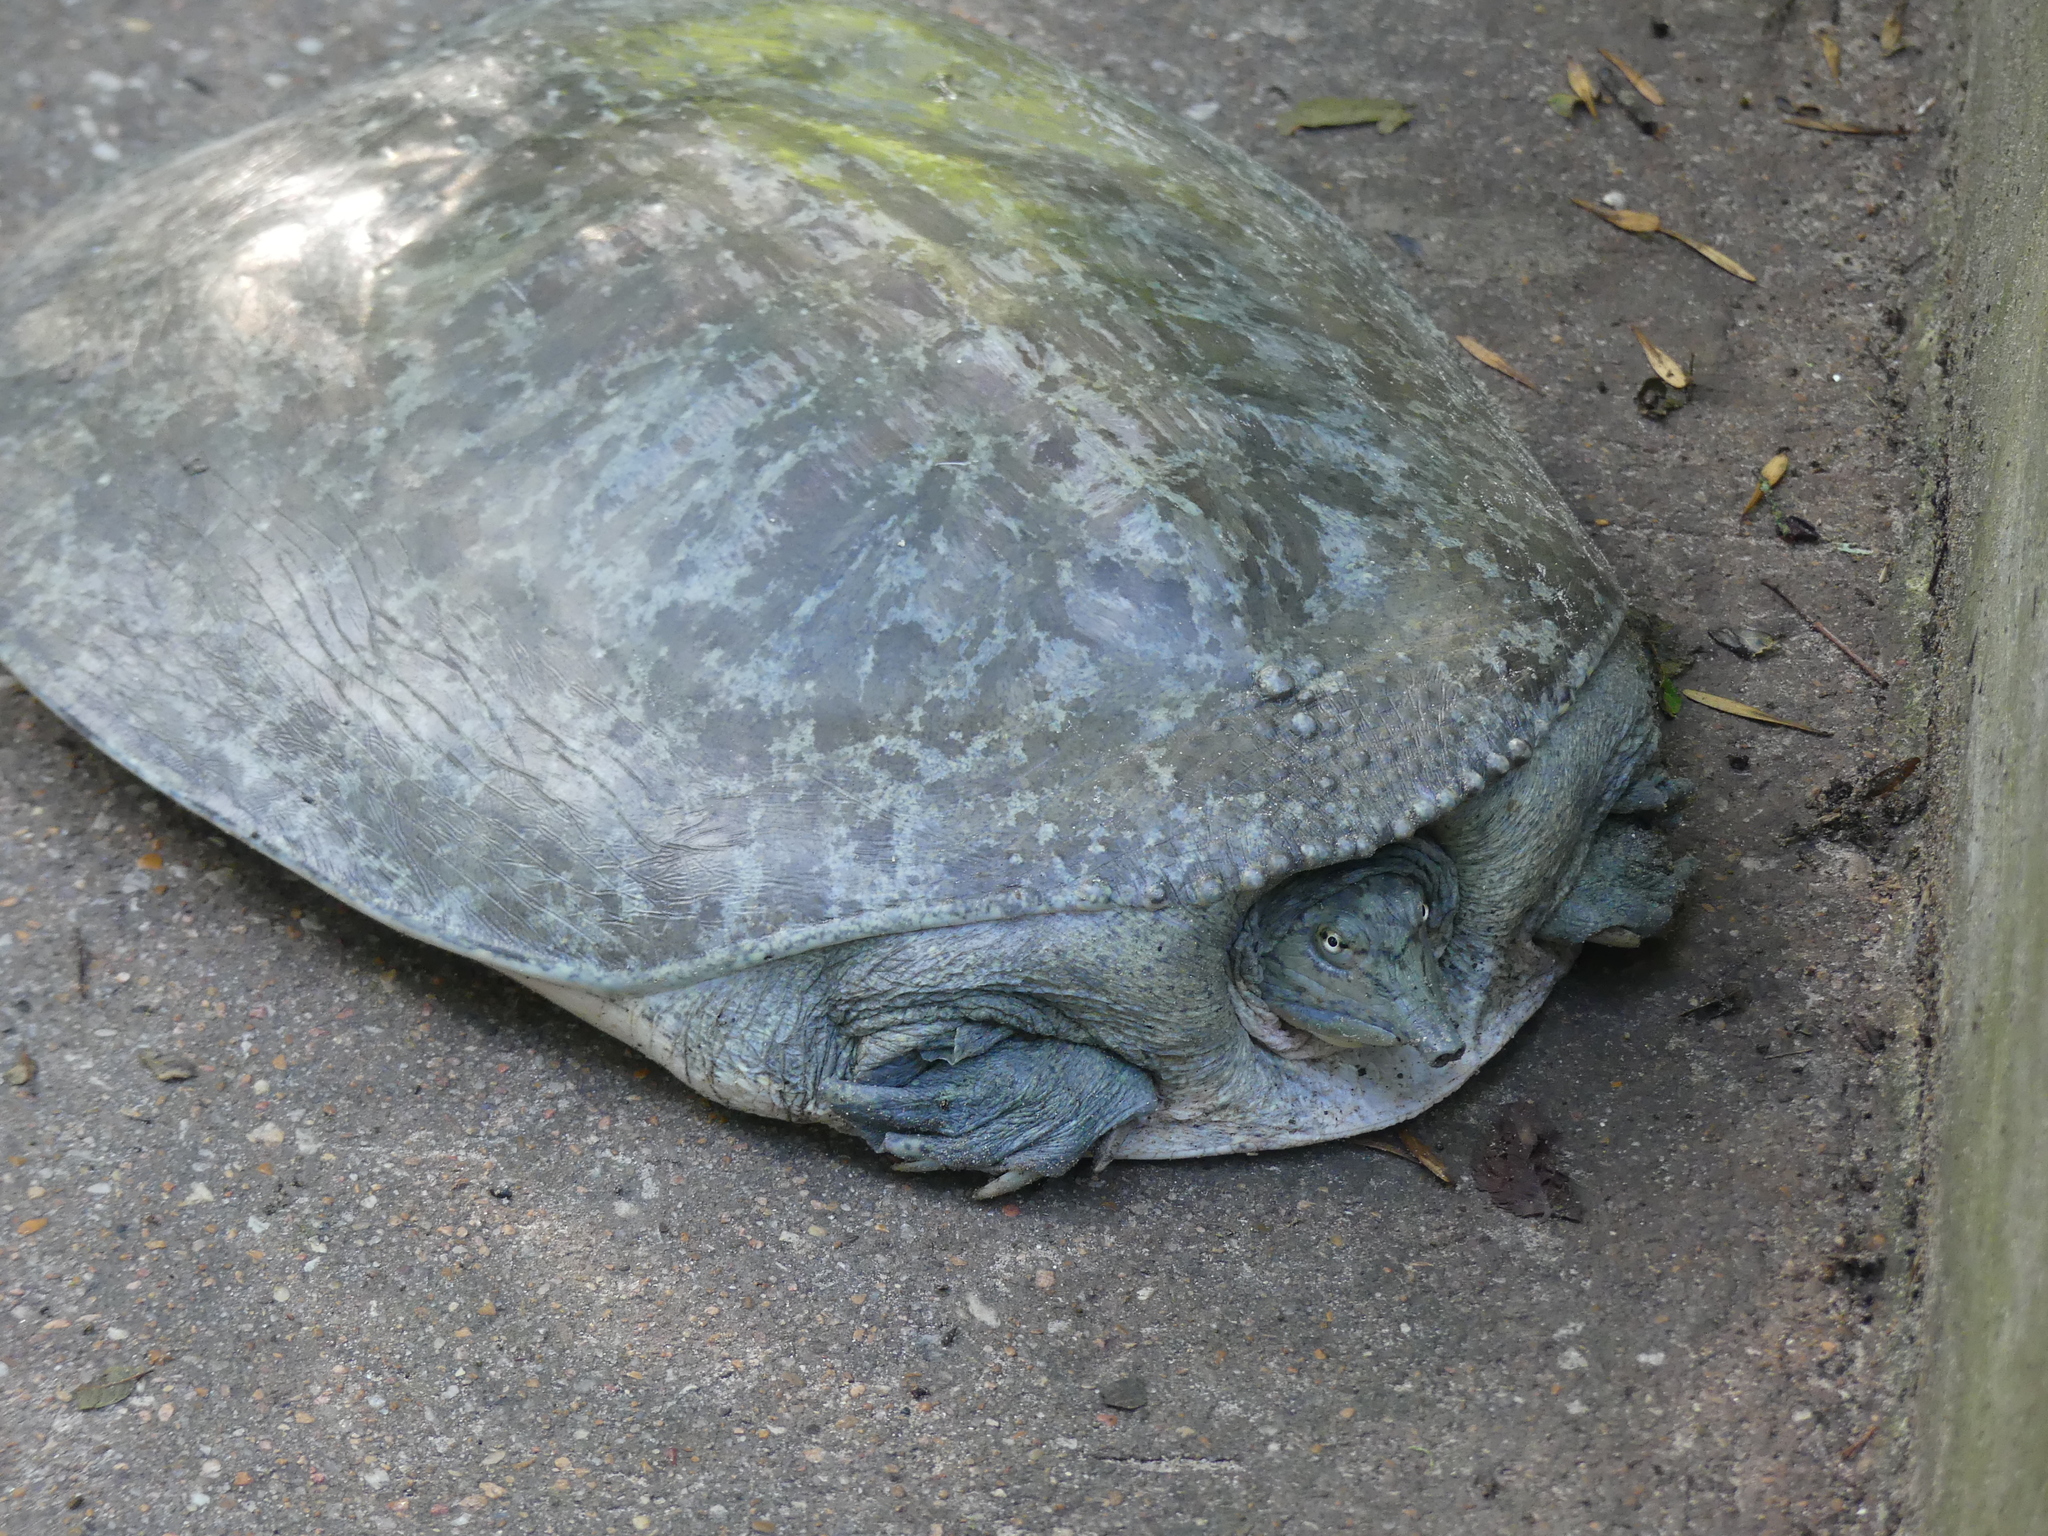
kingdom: Animalia
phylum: Chordata
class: Testudines
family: Trionychidae
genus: Apalone
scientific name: Apalone spinifera
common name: Spiny softshell turtle
